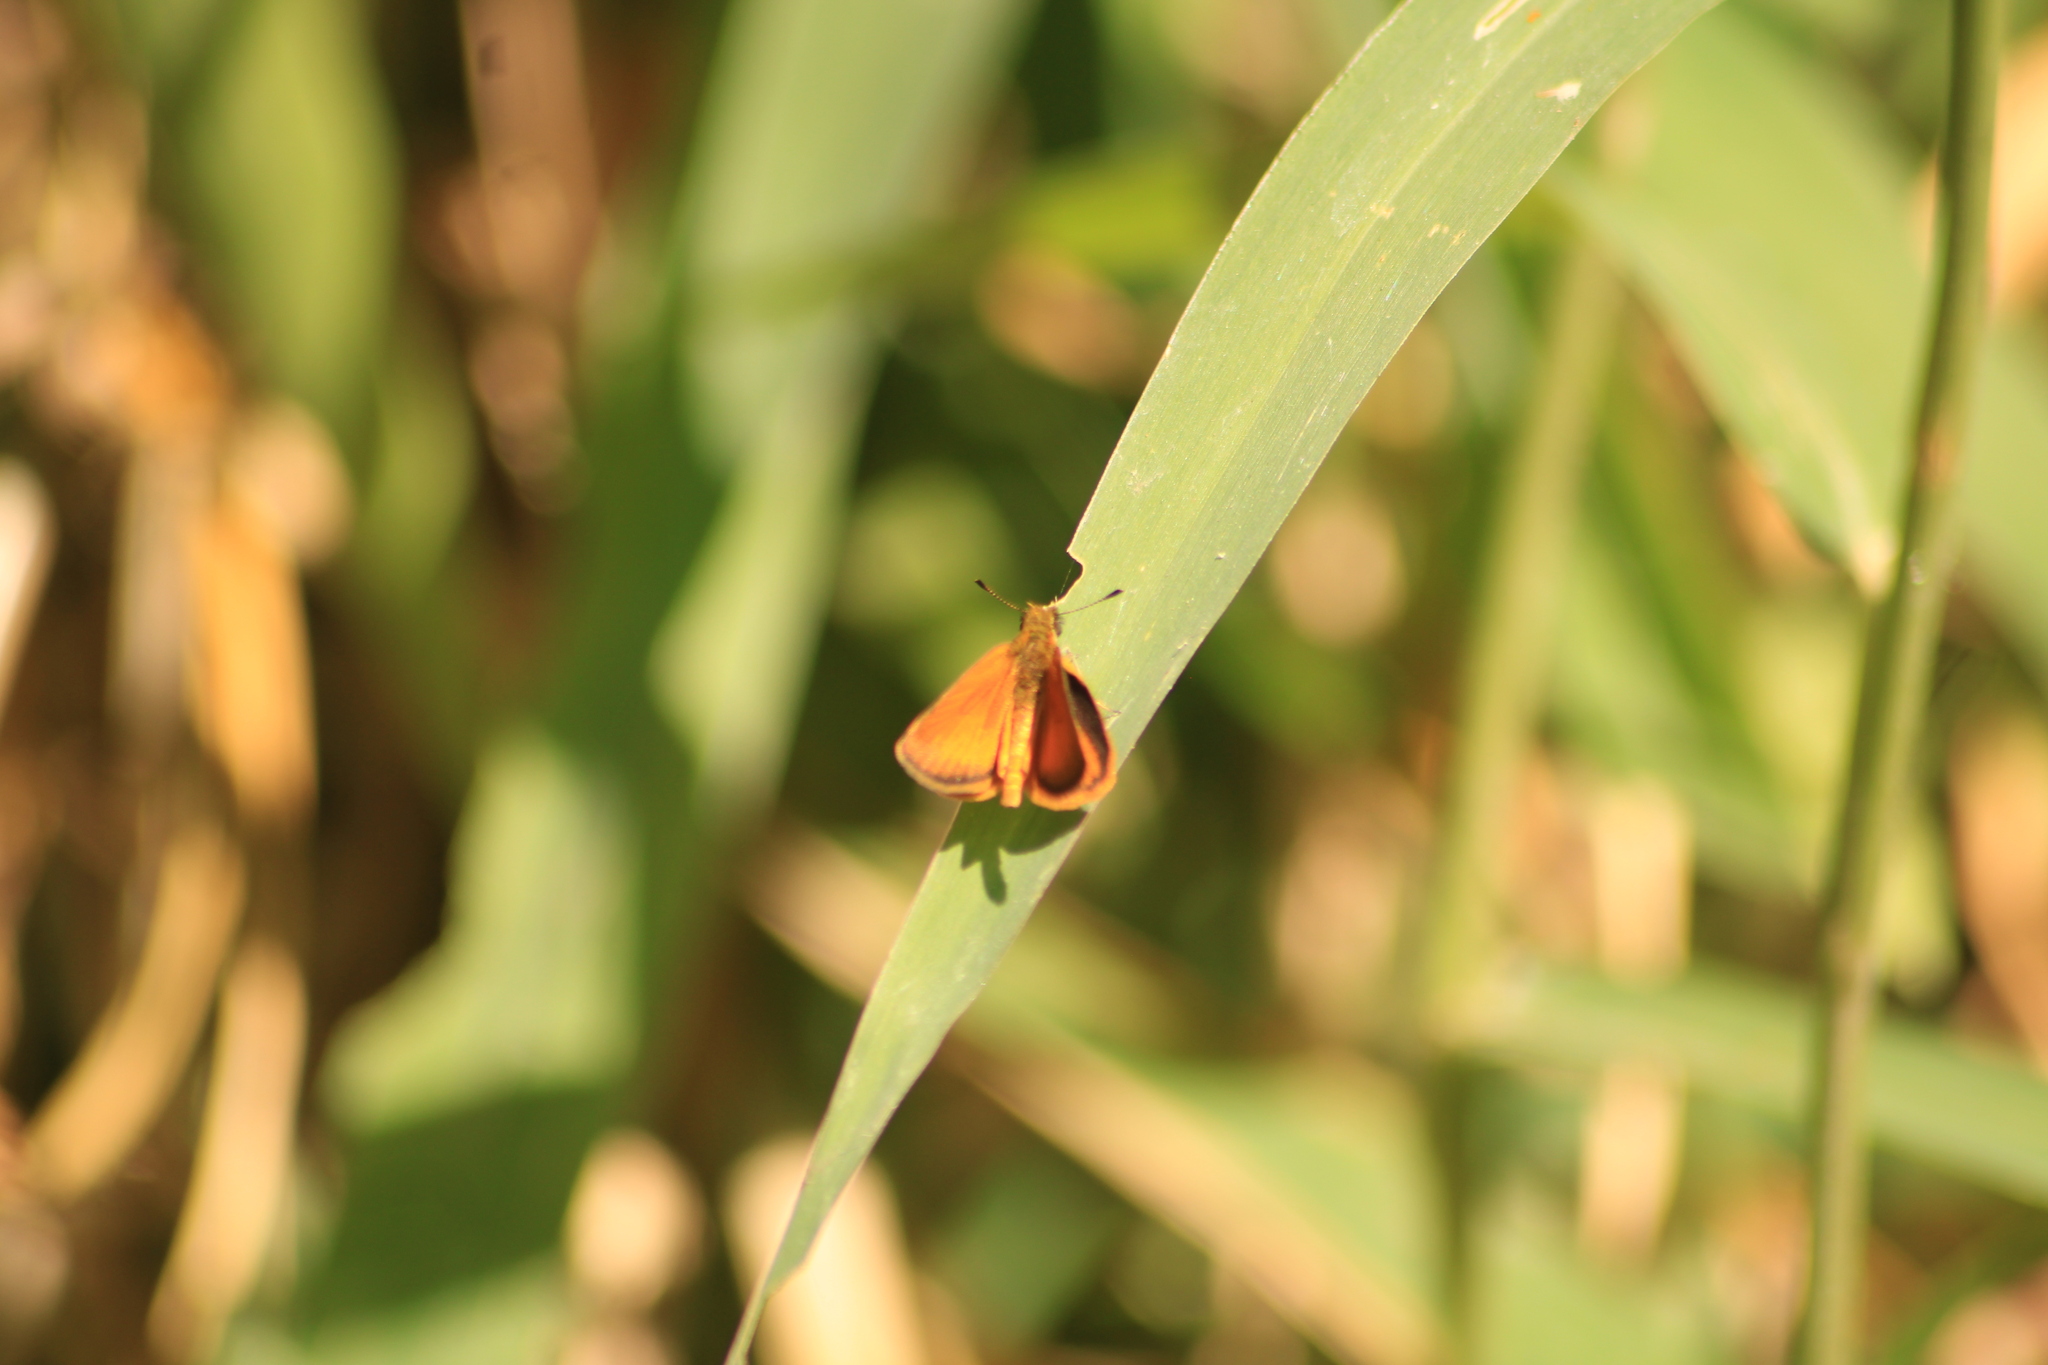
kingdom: Animalia
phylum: Arthropoda
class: Insecta
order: Lepidoptera
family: Hesperiidae
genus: Ancyloxypha
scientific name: Ancyloxypha arene
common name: Tropical least skipper
